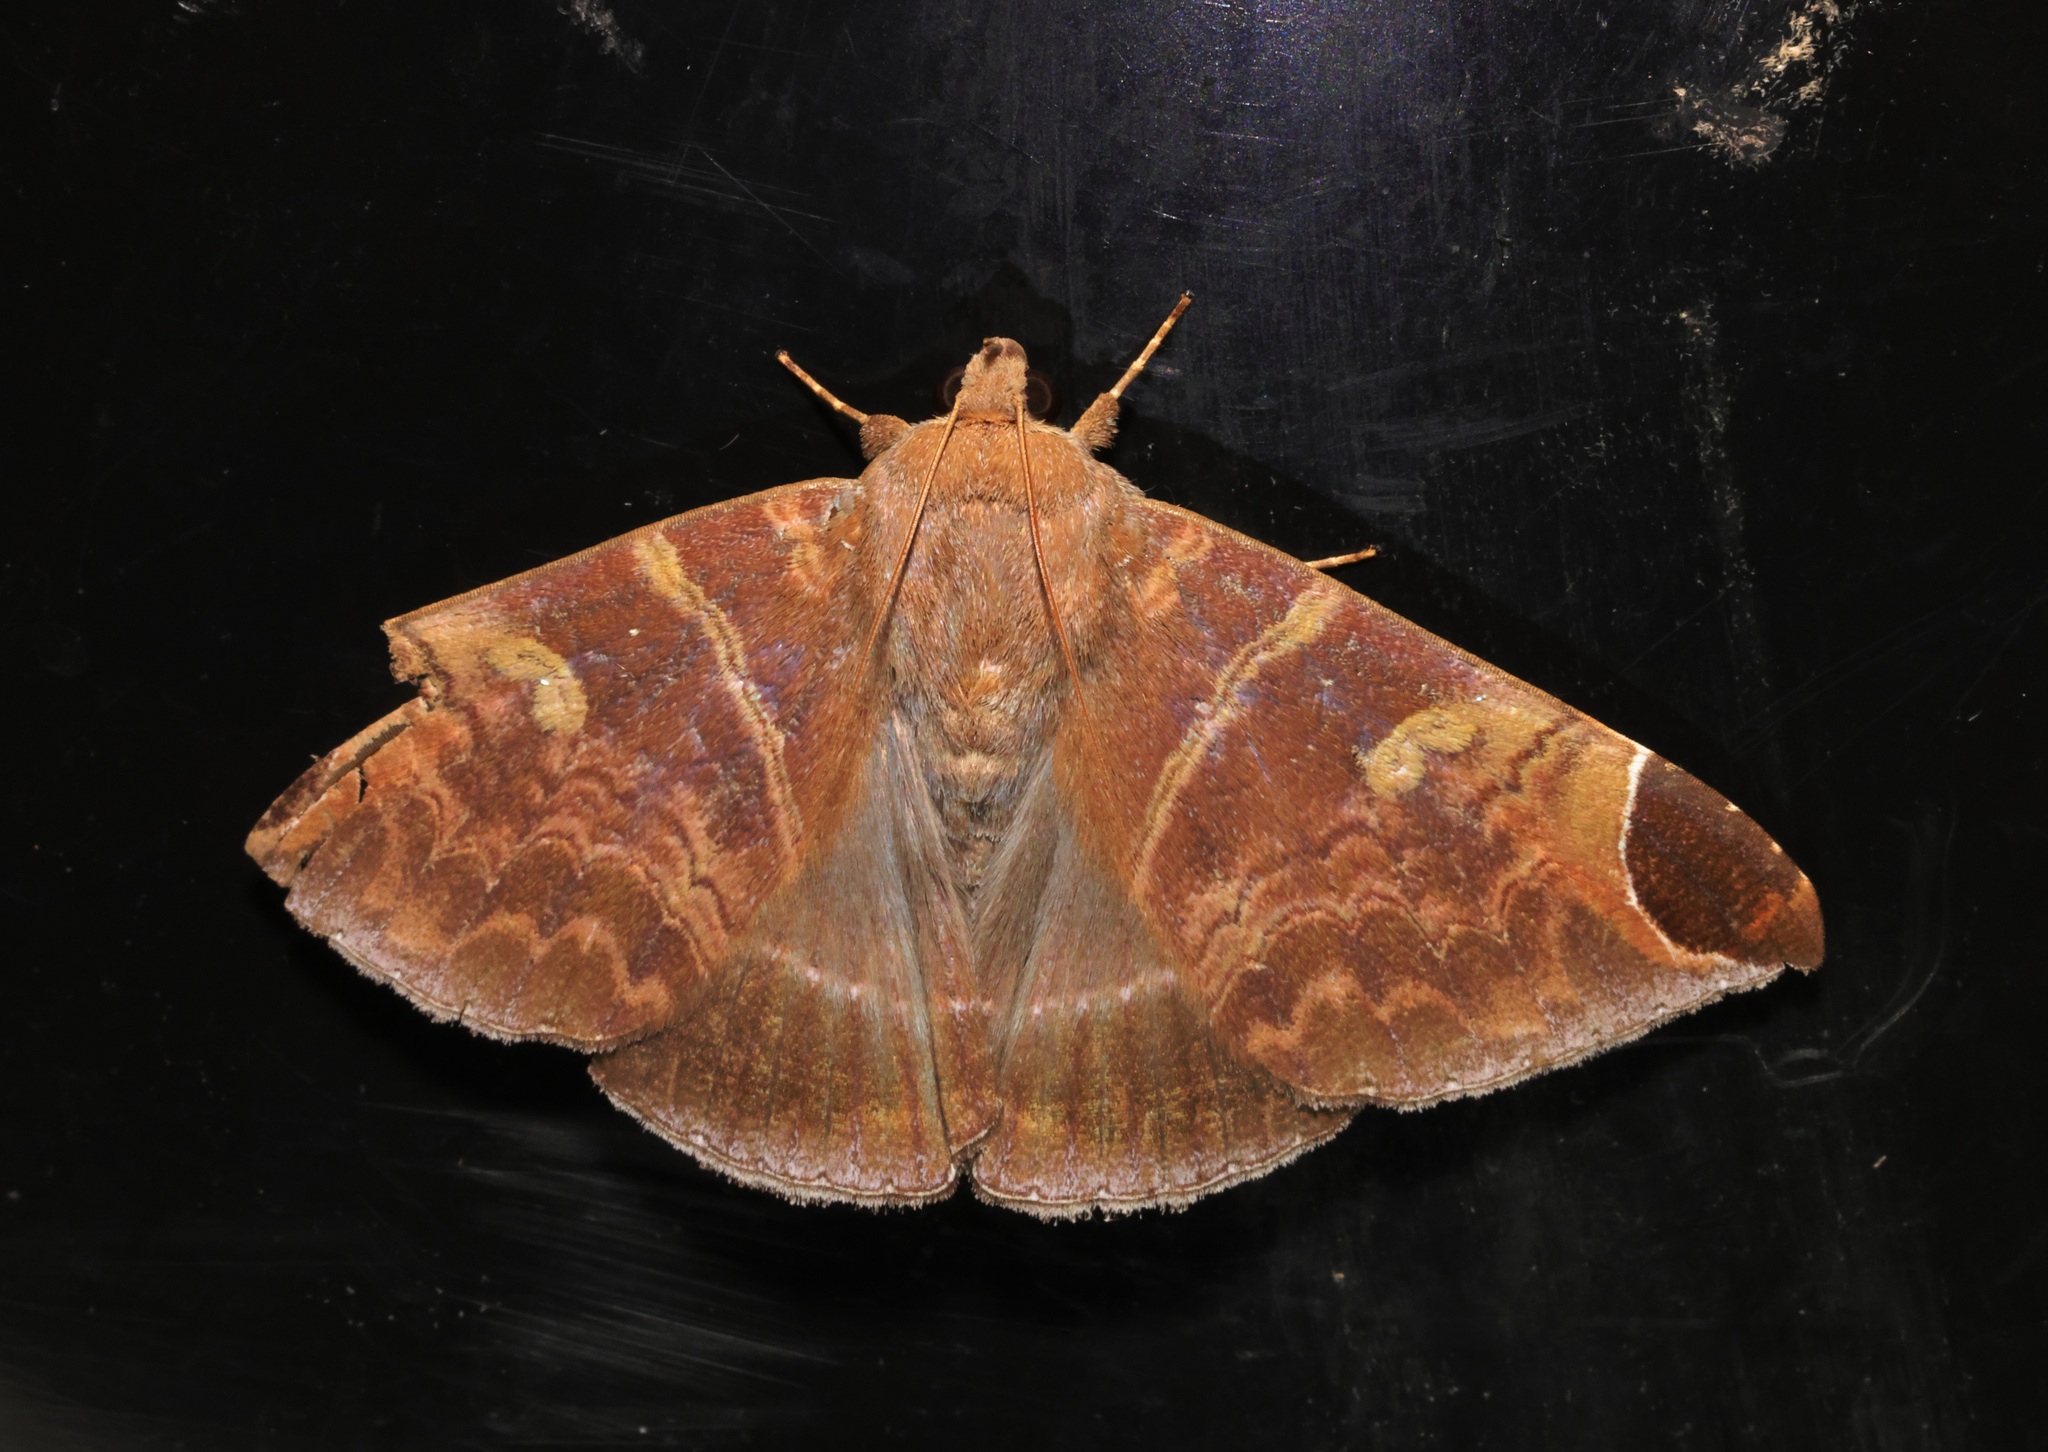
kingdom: Animalia
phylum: Arthropoda
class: Insecta
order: Lepidoptera
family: Erebidae
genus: Pindara
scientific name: Pindara illibata
